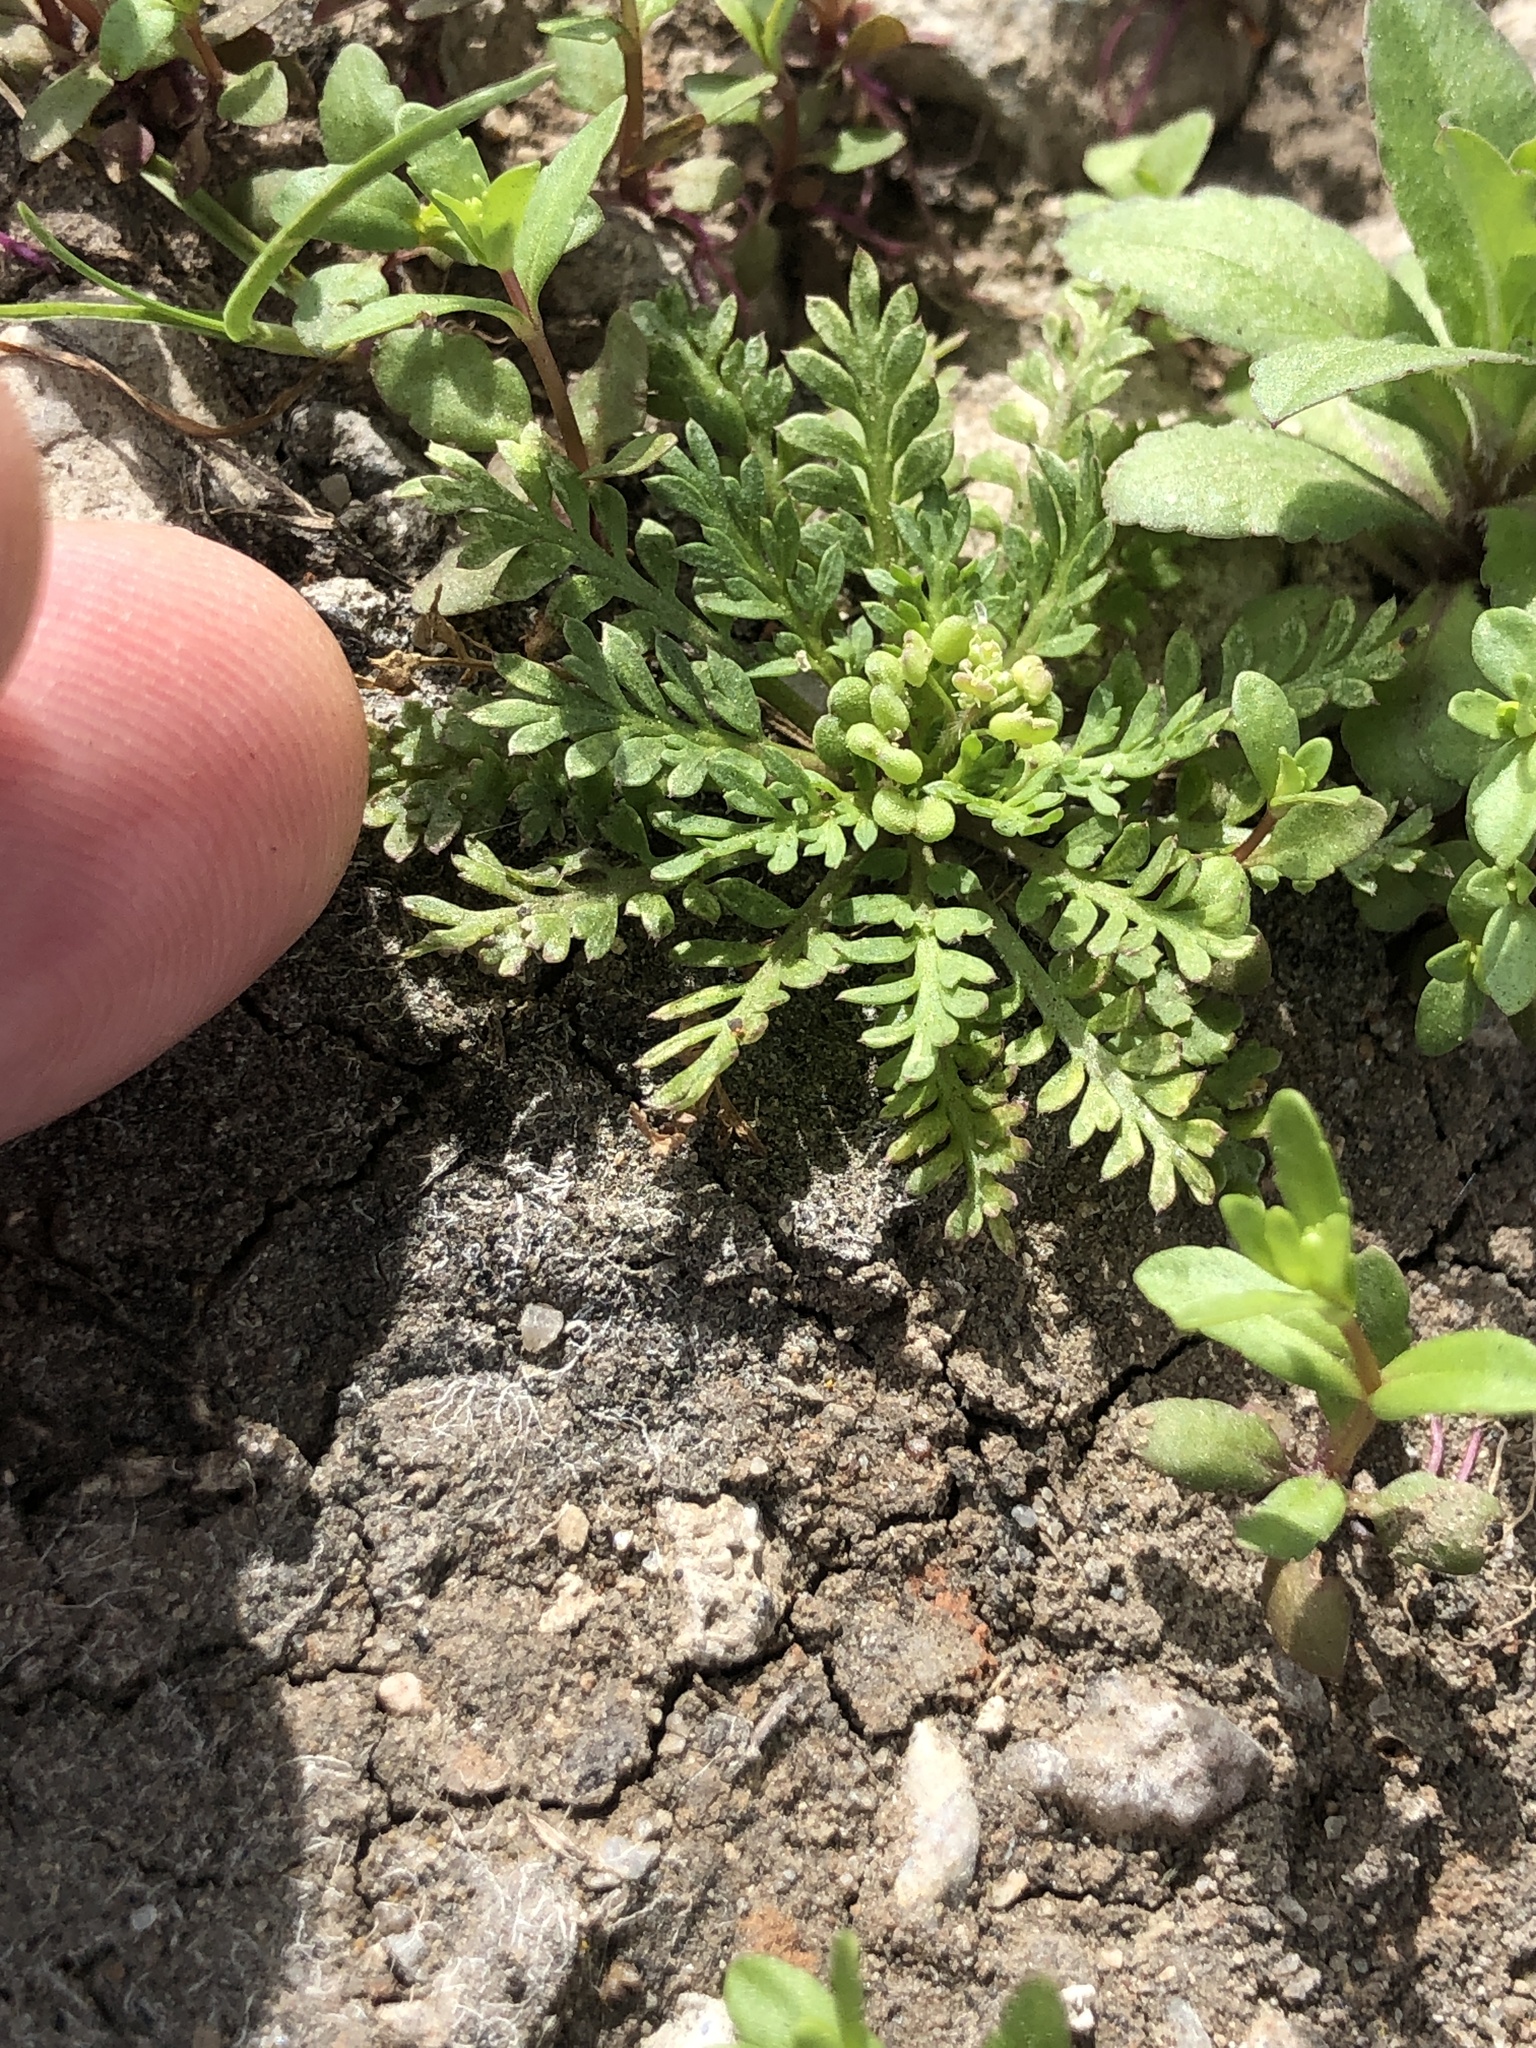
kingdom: Plantae
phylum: Tracheophyta
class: Magnoliopsida
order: Brassicales
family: Brassicaceae
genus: Lepidium
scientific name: Lepidium didymum
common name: Lesser swinecress
